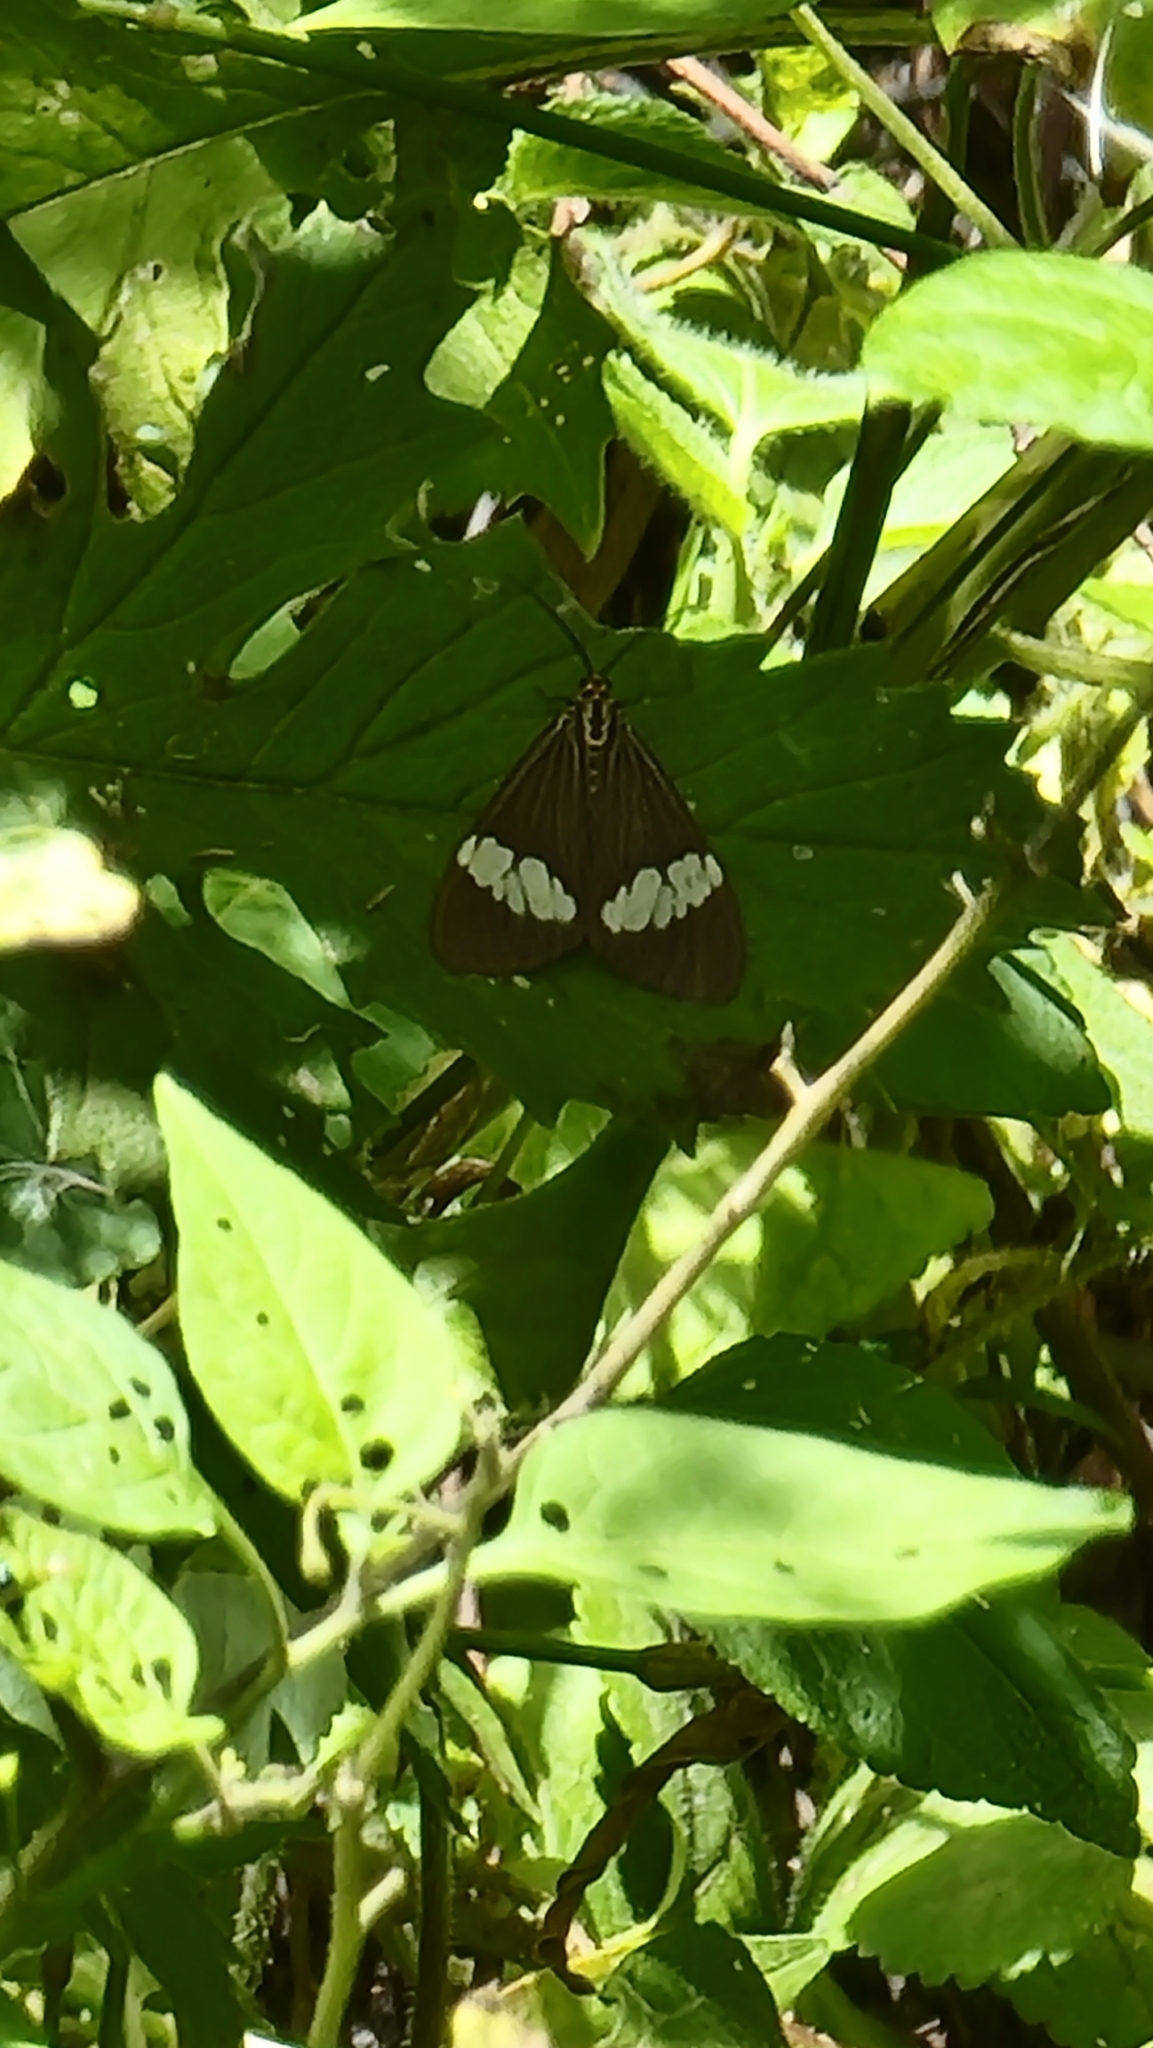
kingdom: Animalia
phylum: Arthropoda
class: Insecta
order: Lepidoptera
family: Erebidae
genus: Nyctemera
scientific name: Nyctemera baulus
